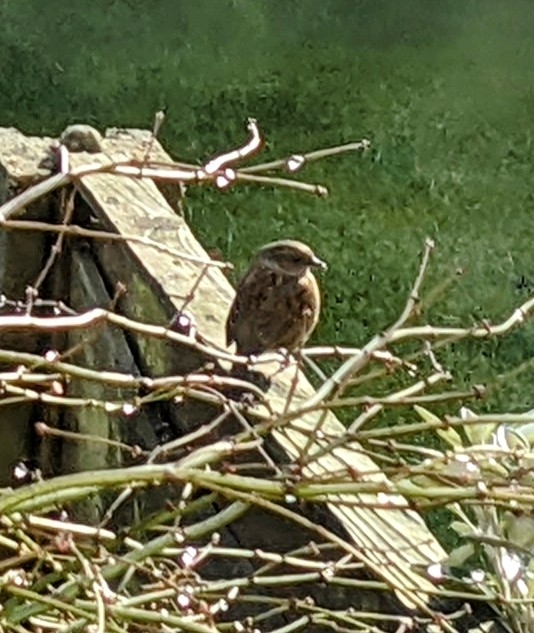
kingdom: Animalia
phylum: Chordata
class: Aves
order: Passeriformes
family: Prunellidae
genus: Prunella
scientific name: Prunella modularis
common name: Dunnock
